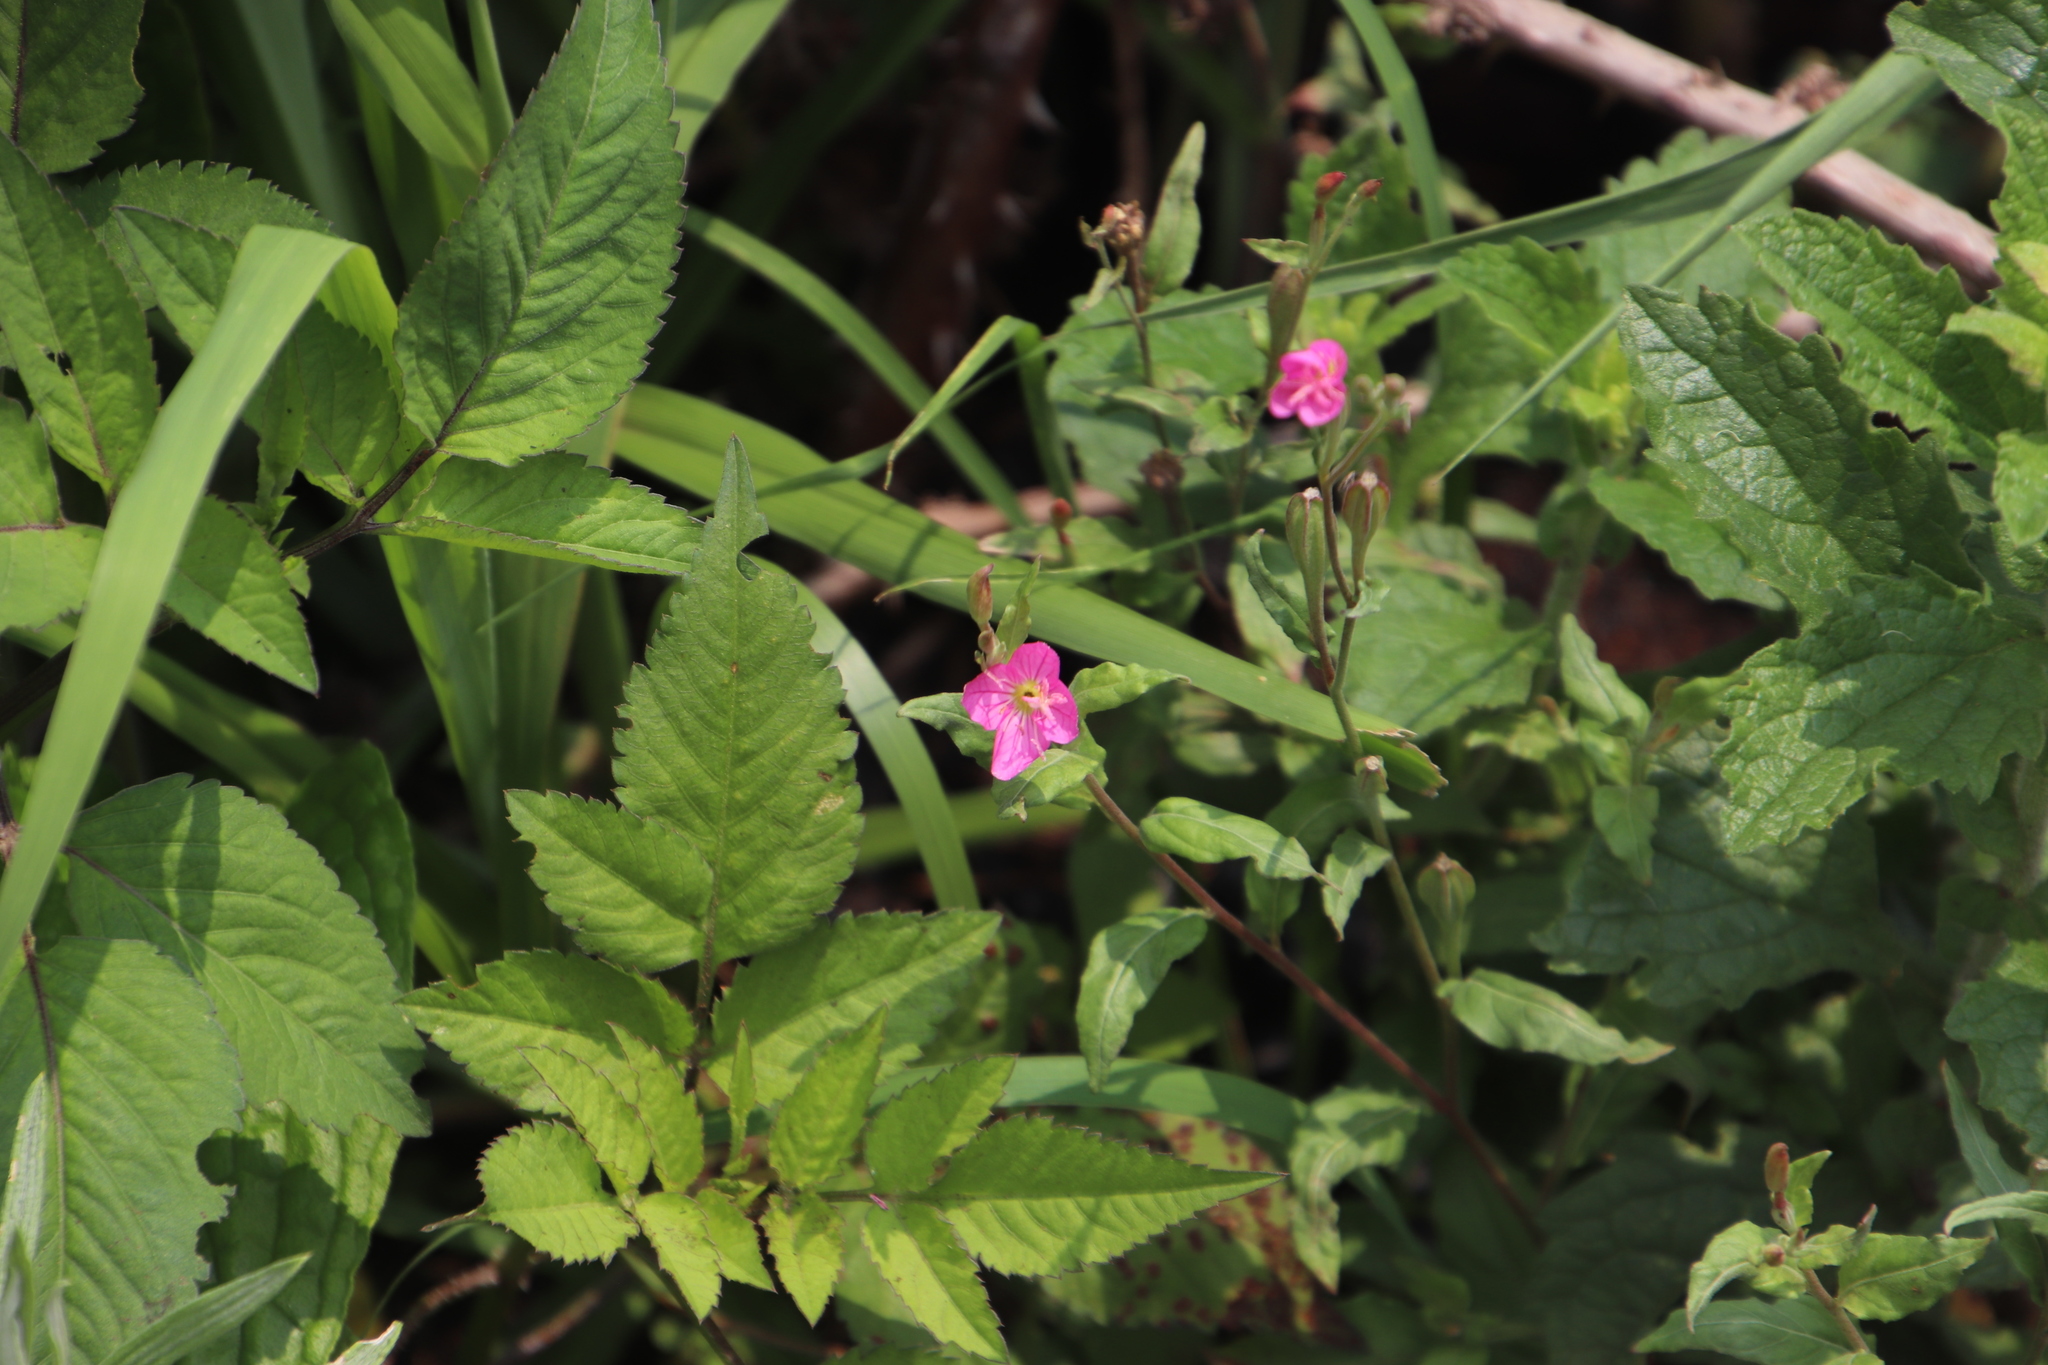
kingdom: Plantae
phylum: Tracheophyta
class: Magnoliopsida
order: Myrtales
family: Onagraceae
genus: Oenothera
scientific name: Oenothera rosea
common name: Rosy evening-primrose
